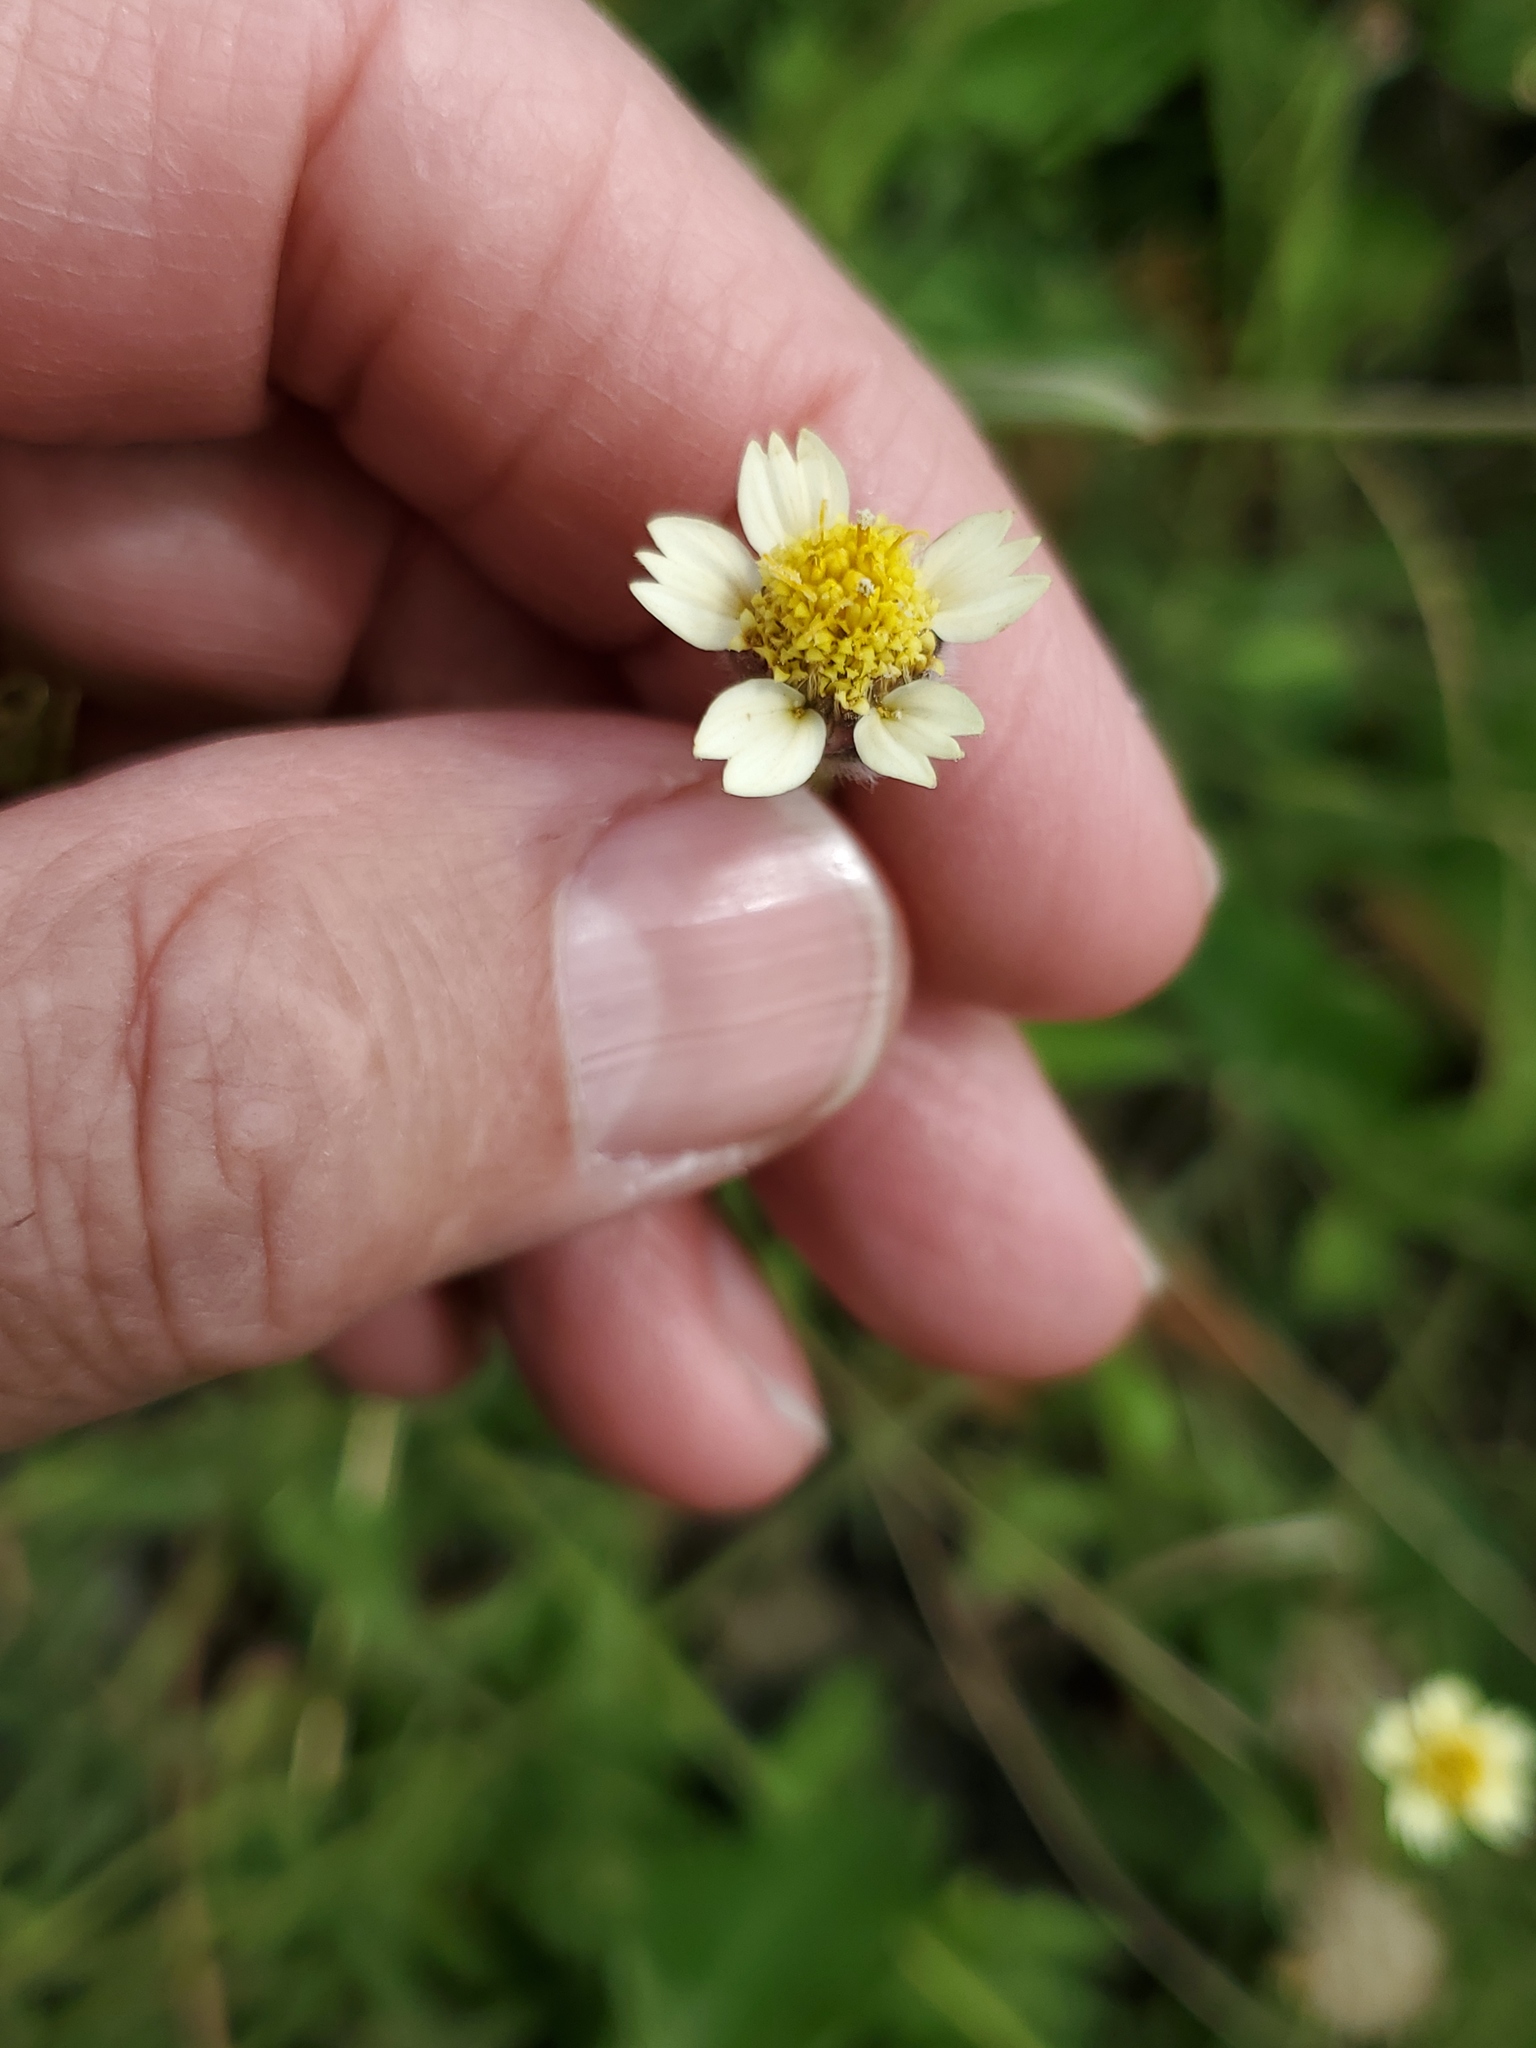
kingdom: Plantae
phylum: Tracheophyta
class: Magnoliopsida
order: Asterales
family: Asteraceae
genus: Tridax
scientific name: Tridax procumbens
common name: Coatbuttons
